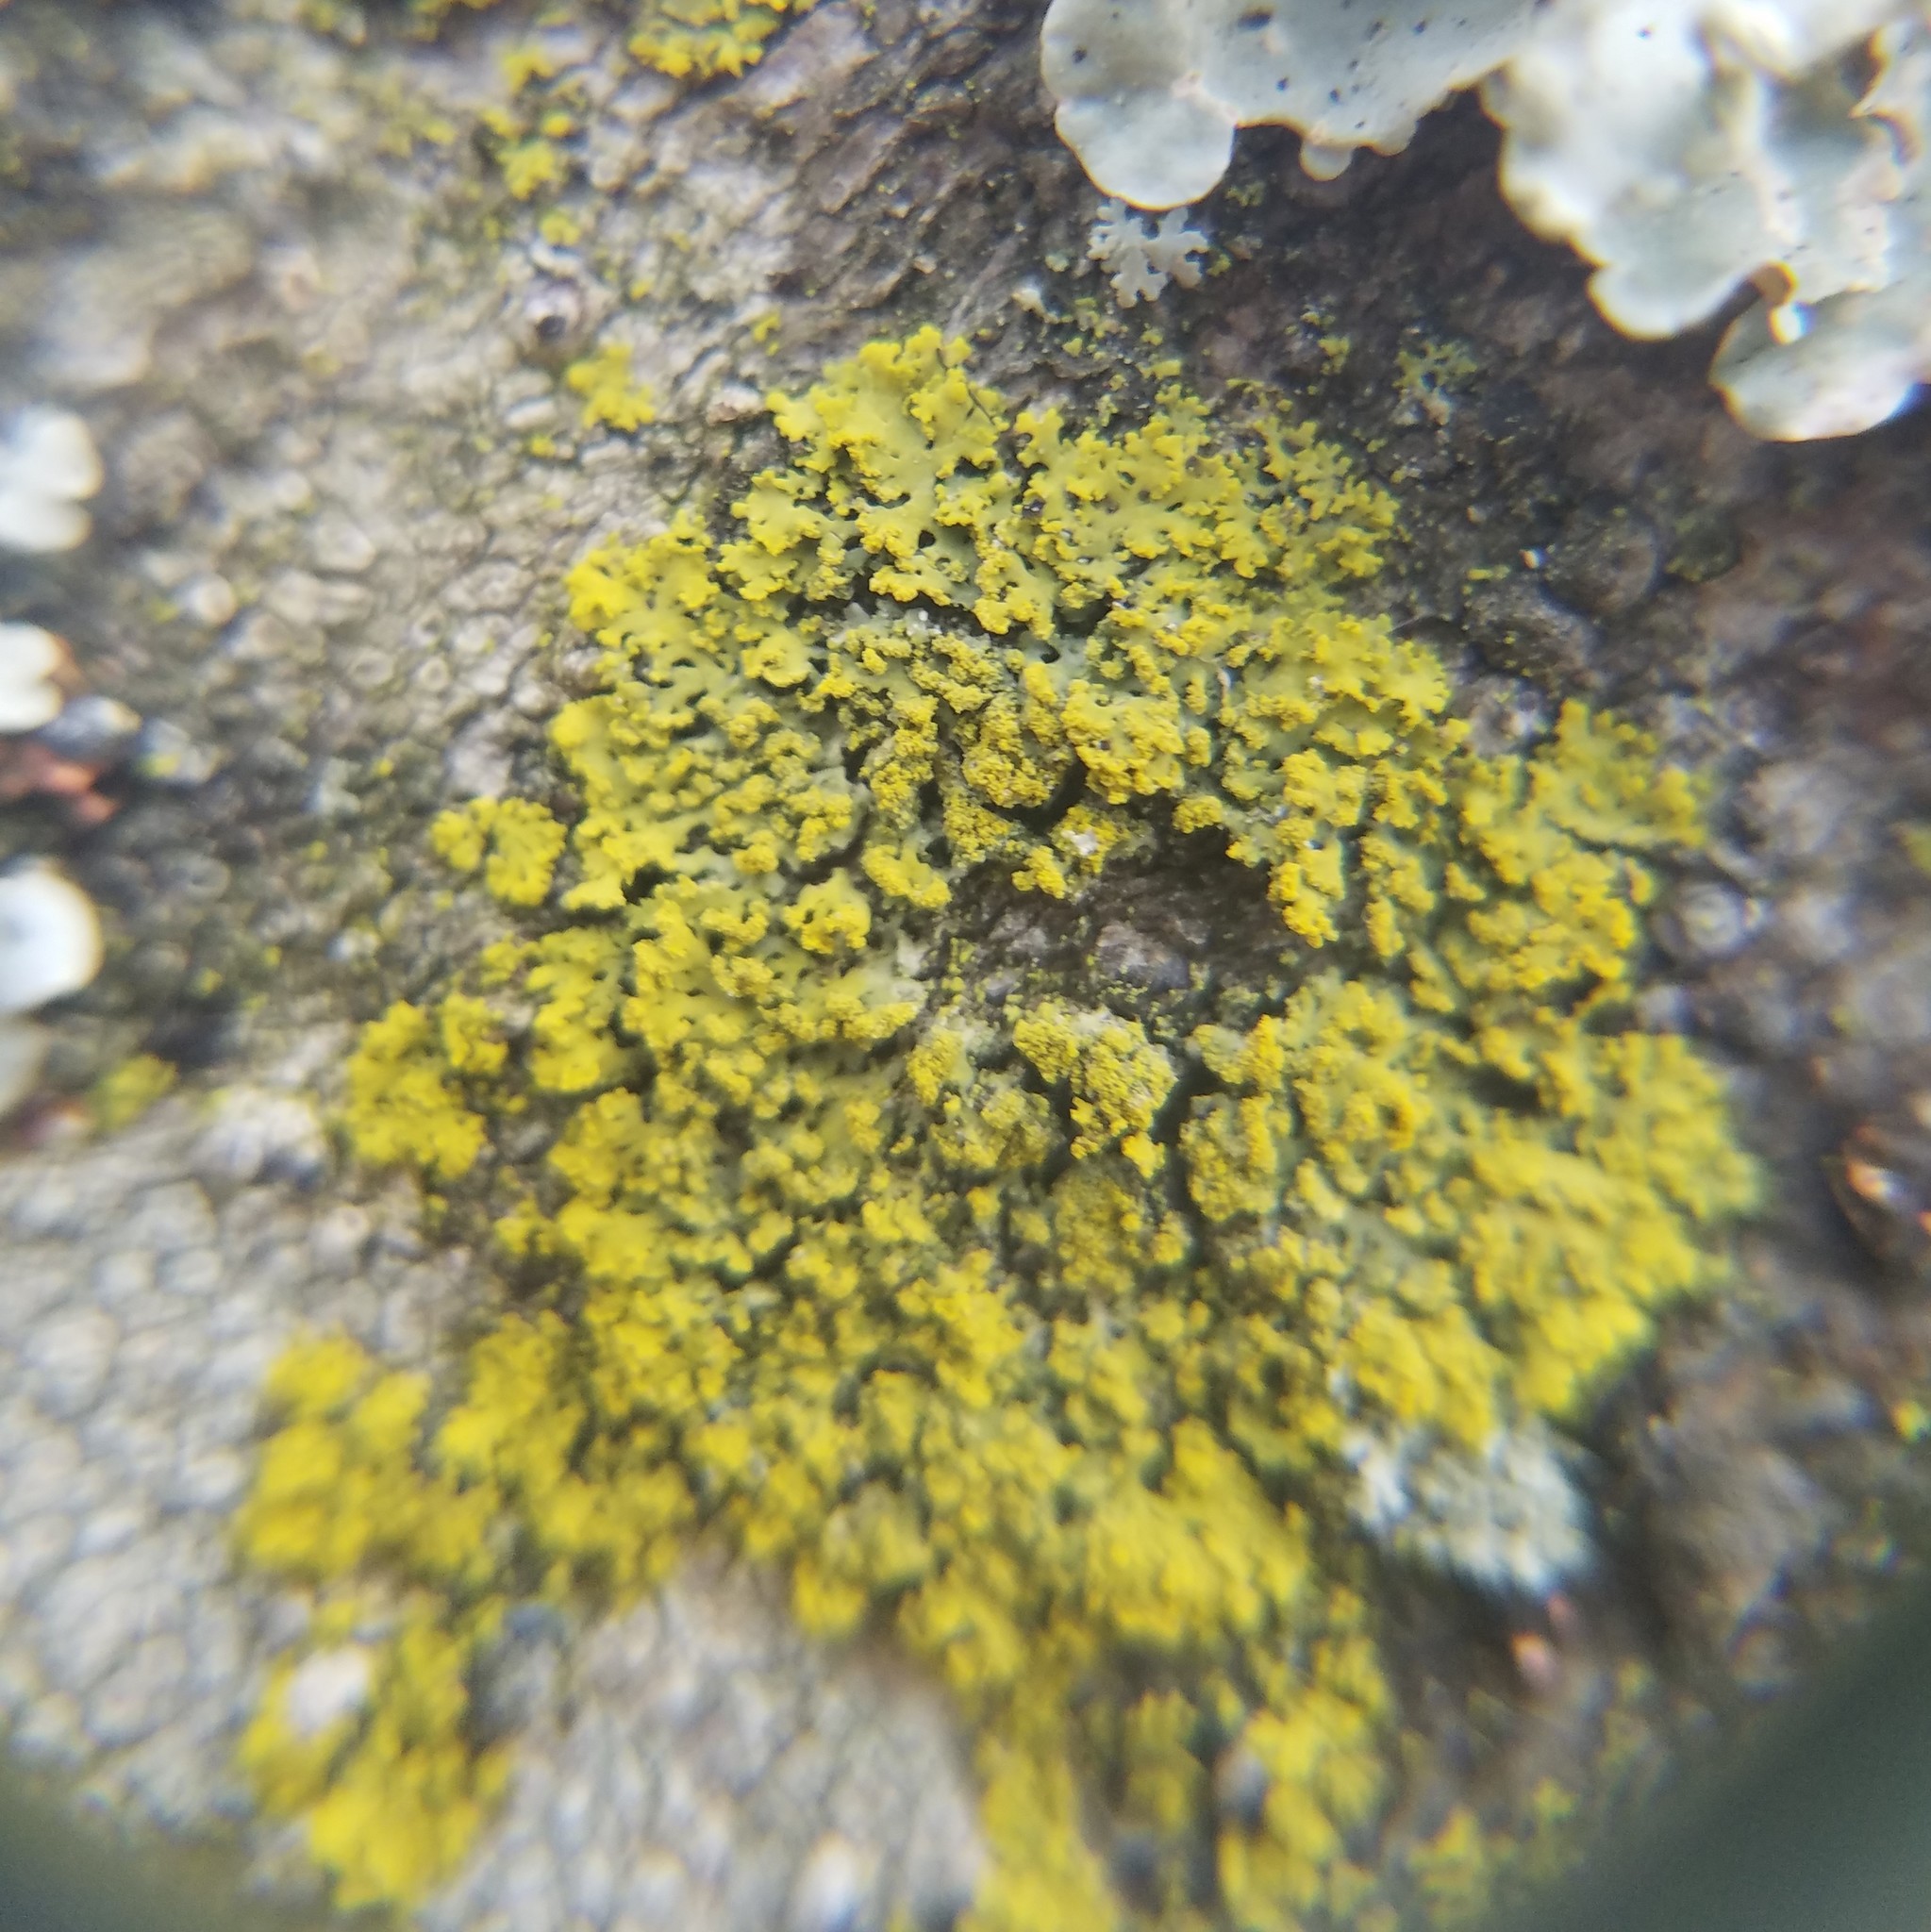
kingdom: Fungi
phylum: Ascomycota
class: Candelariomycetes
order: Candelariales
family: Candelariaceae
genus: Candelaria
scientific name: Candelaria concolor
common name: Candleflame lichen
